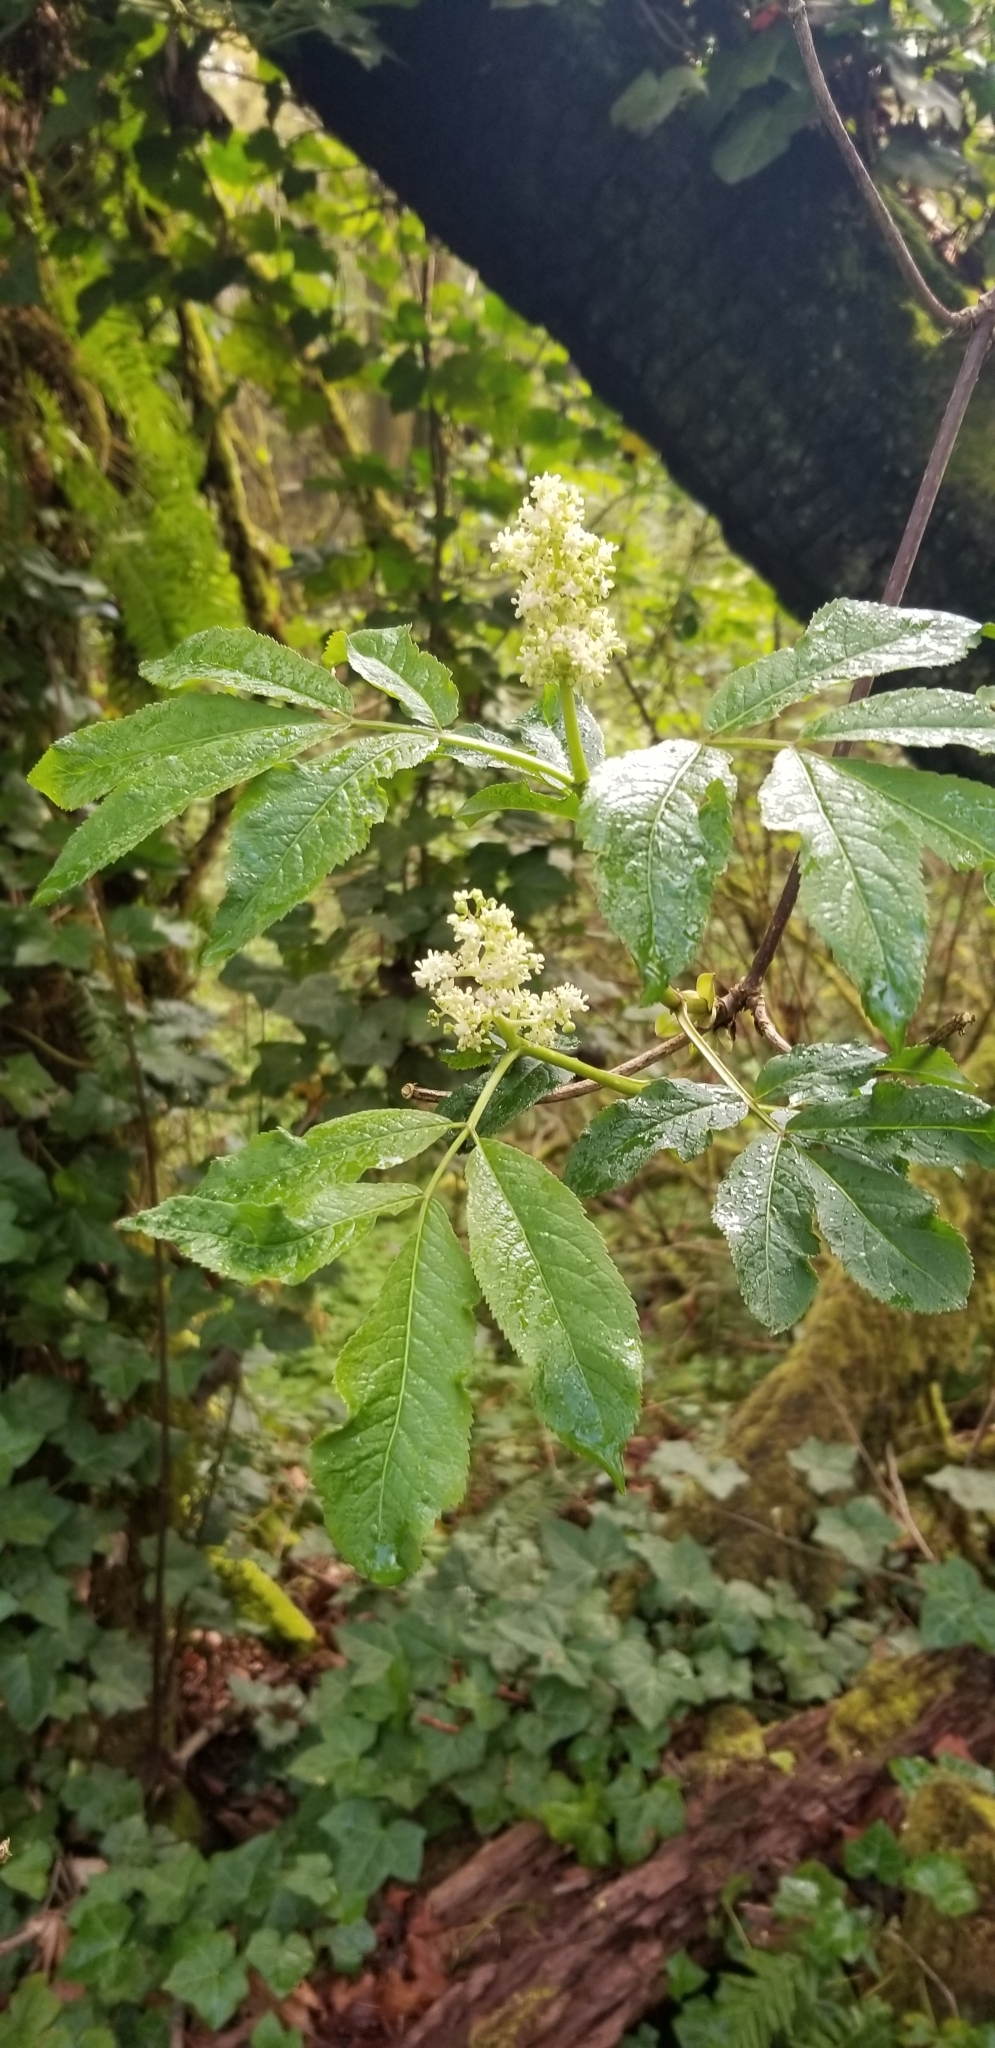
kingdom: Plantae
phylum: Tracheophyta
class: Magnoliopsida
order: Dipsacales
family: Viburnaceae
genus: Sambucus
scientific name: Sambucus racemosa
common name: Red-berried elder
